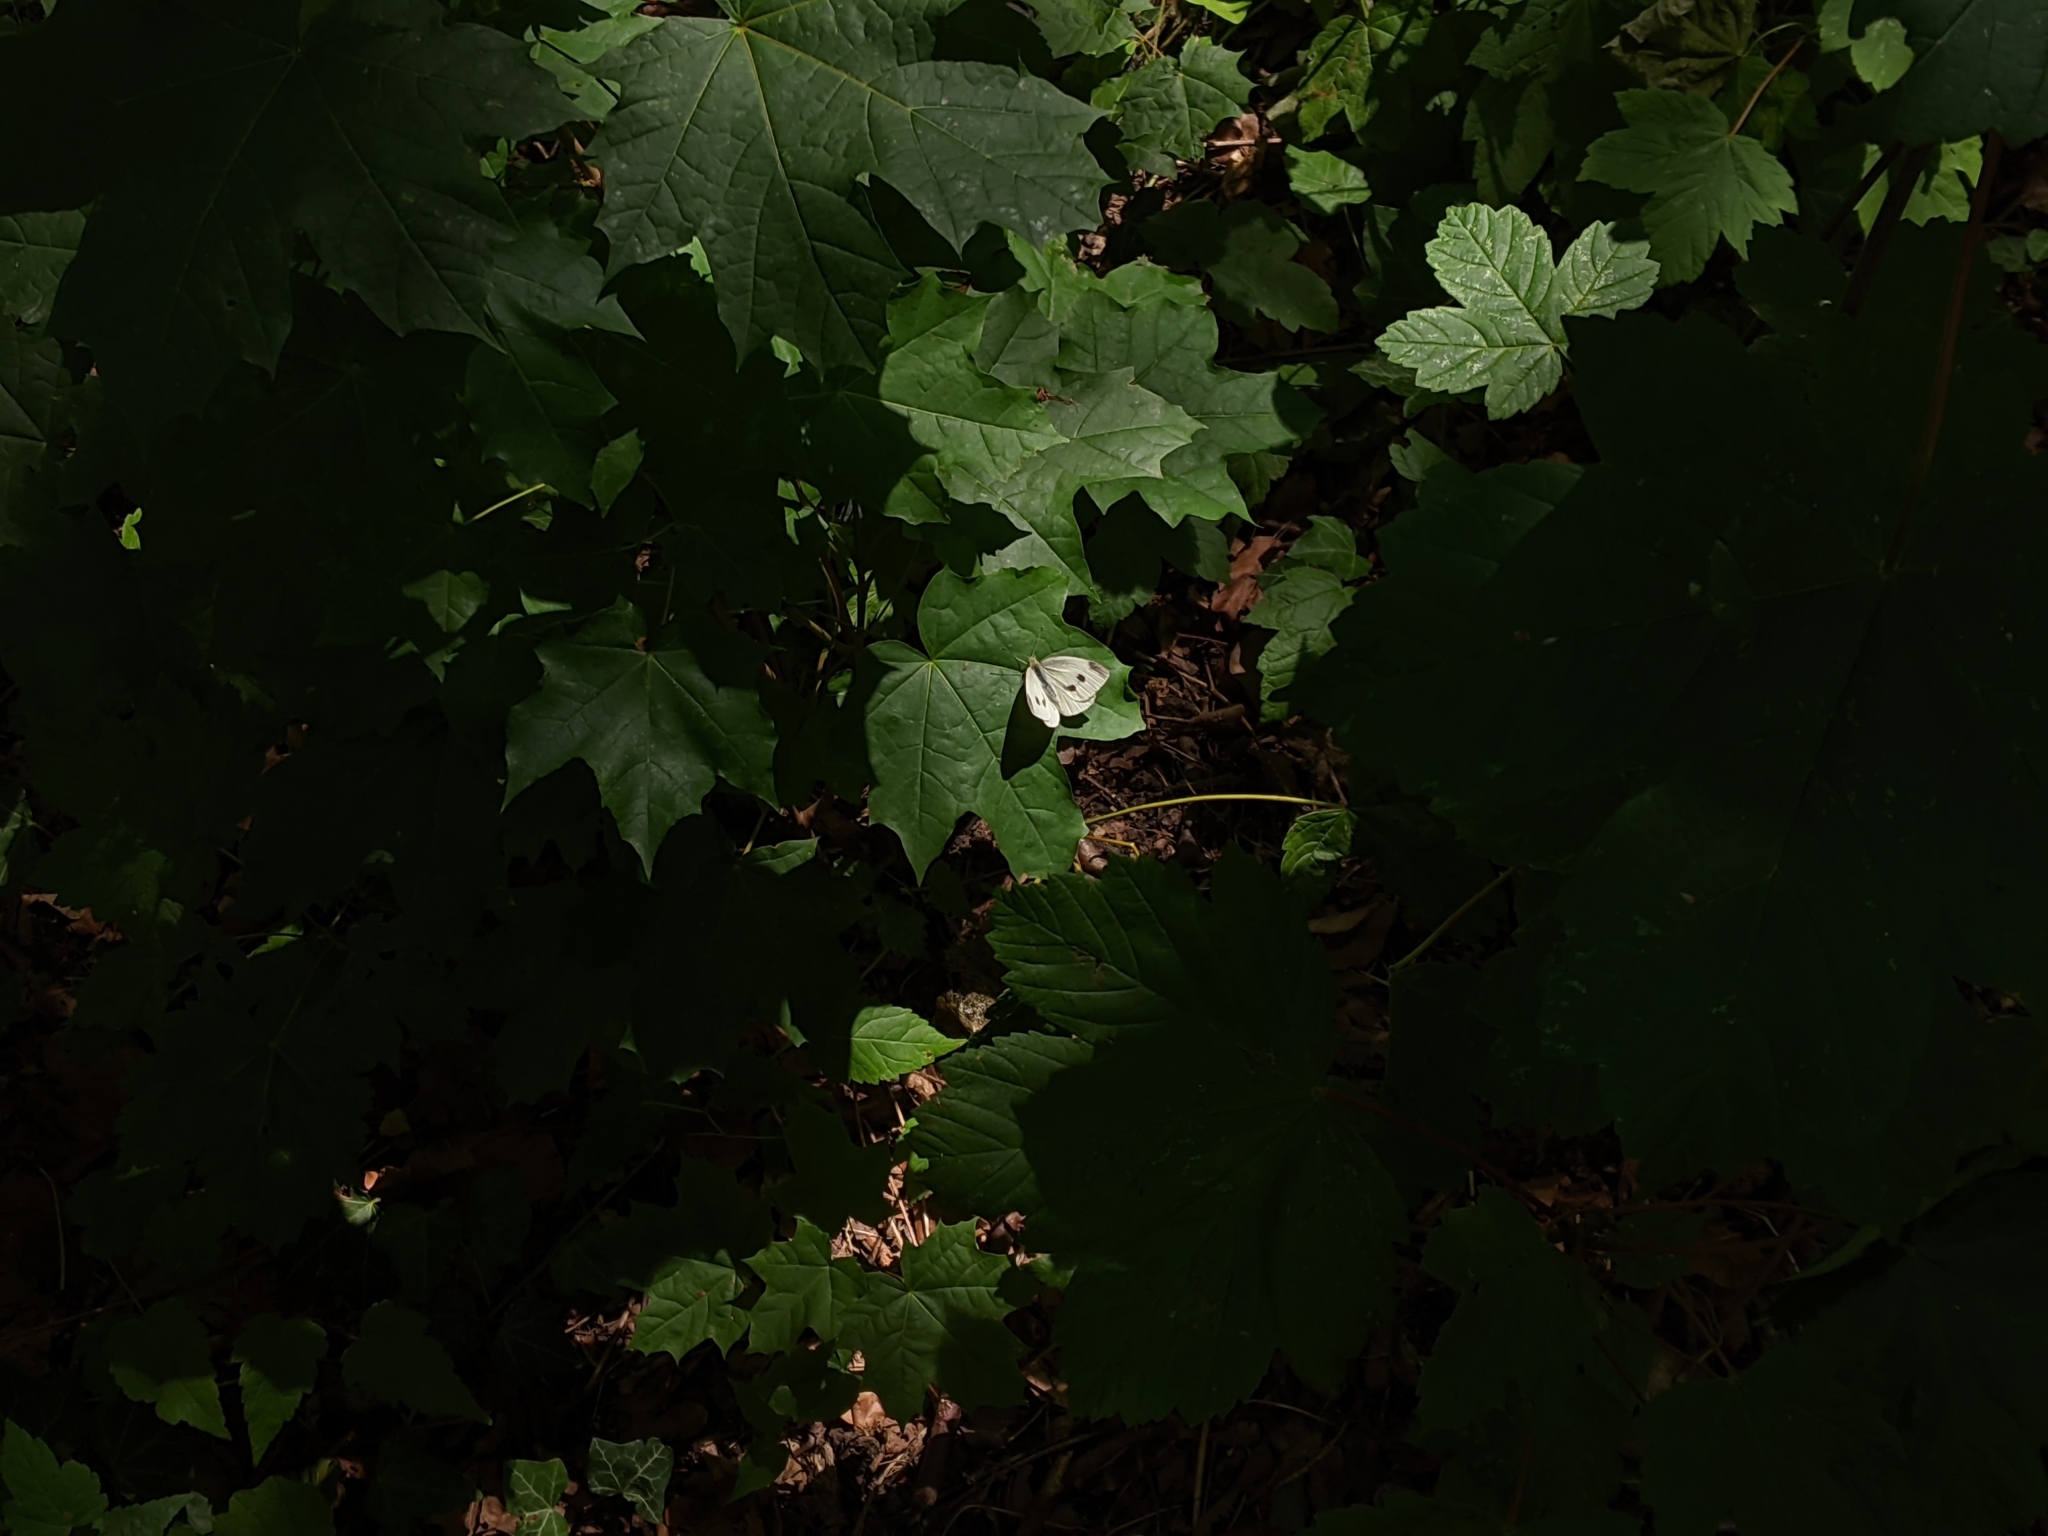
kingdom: Animalia
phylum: Arthropoda
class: Insecta
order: Lepidoptera
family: Pieridae
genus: Pieris
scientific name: Pieris rapae
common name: Small white
